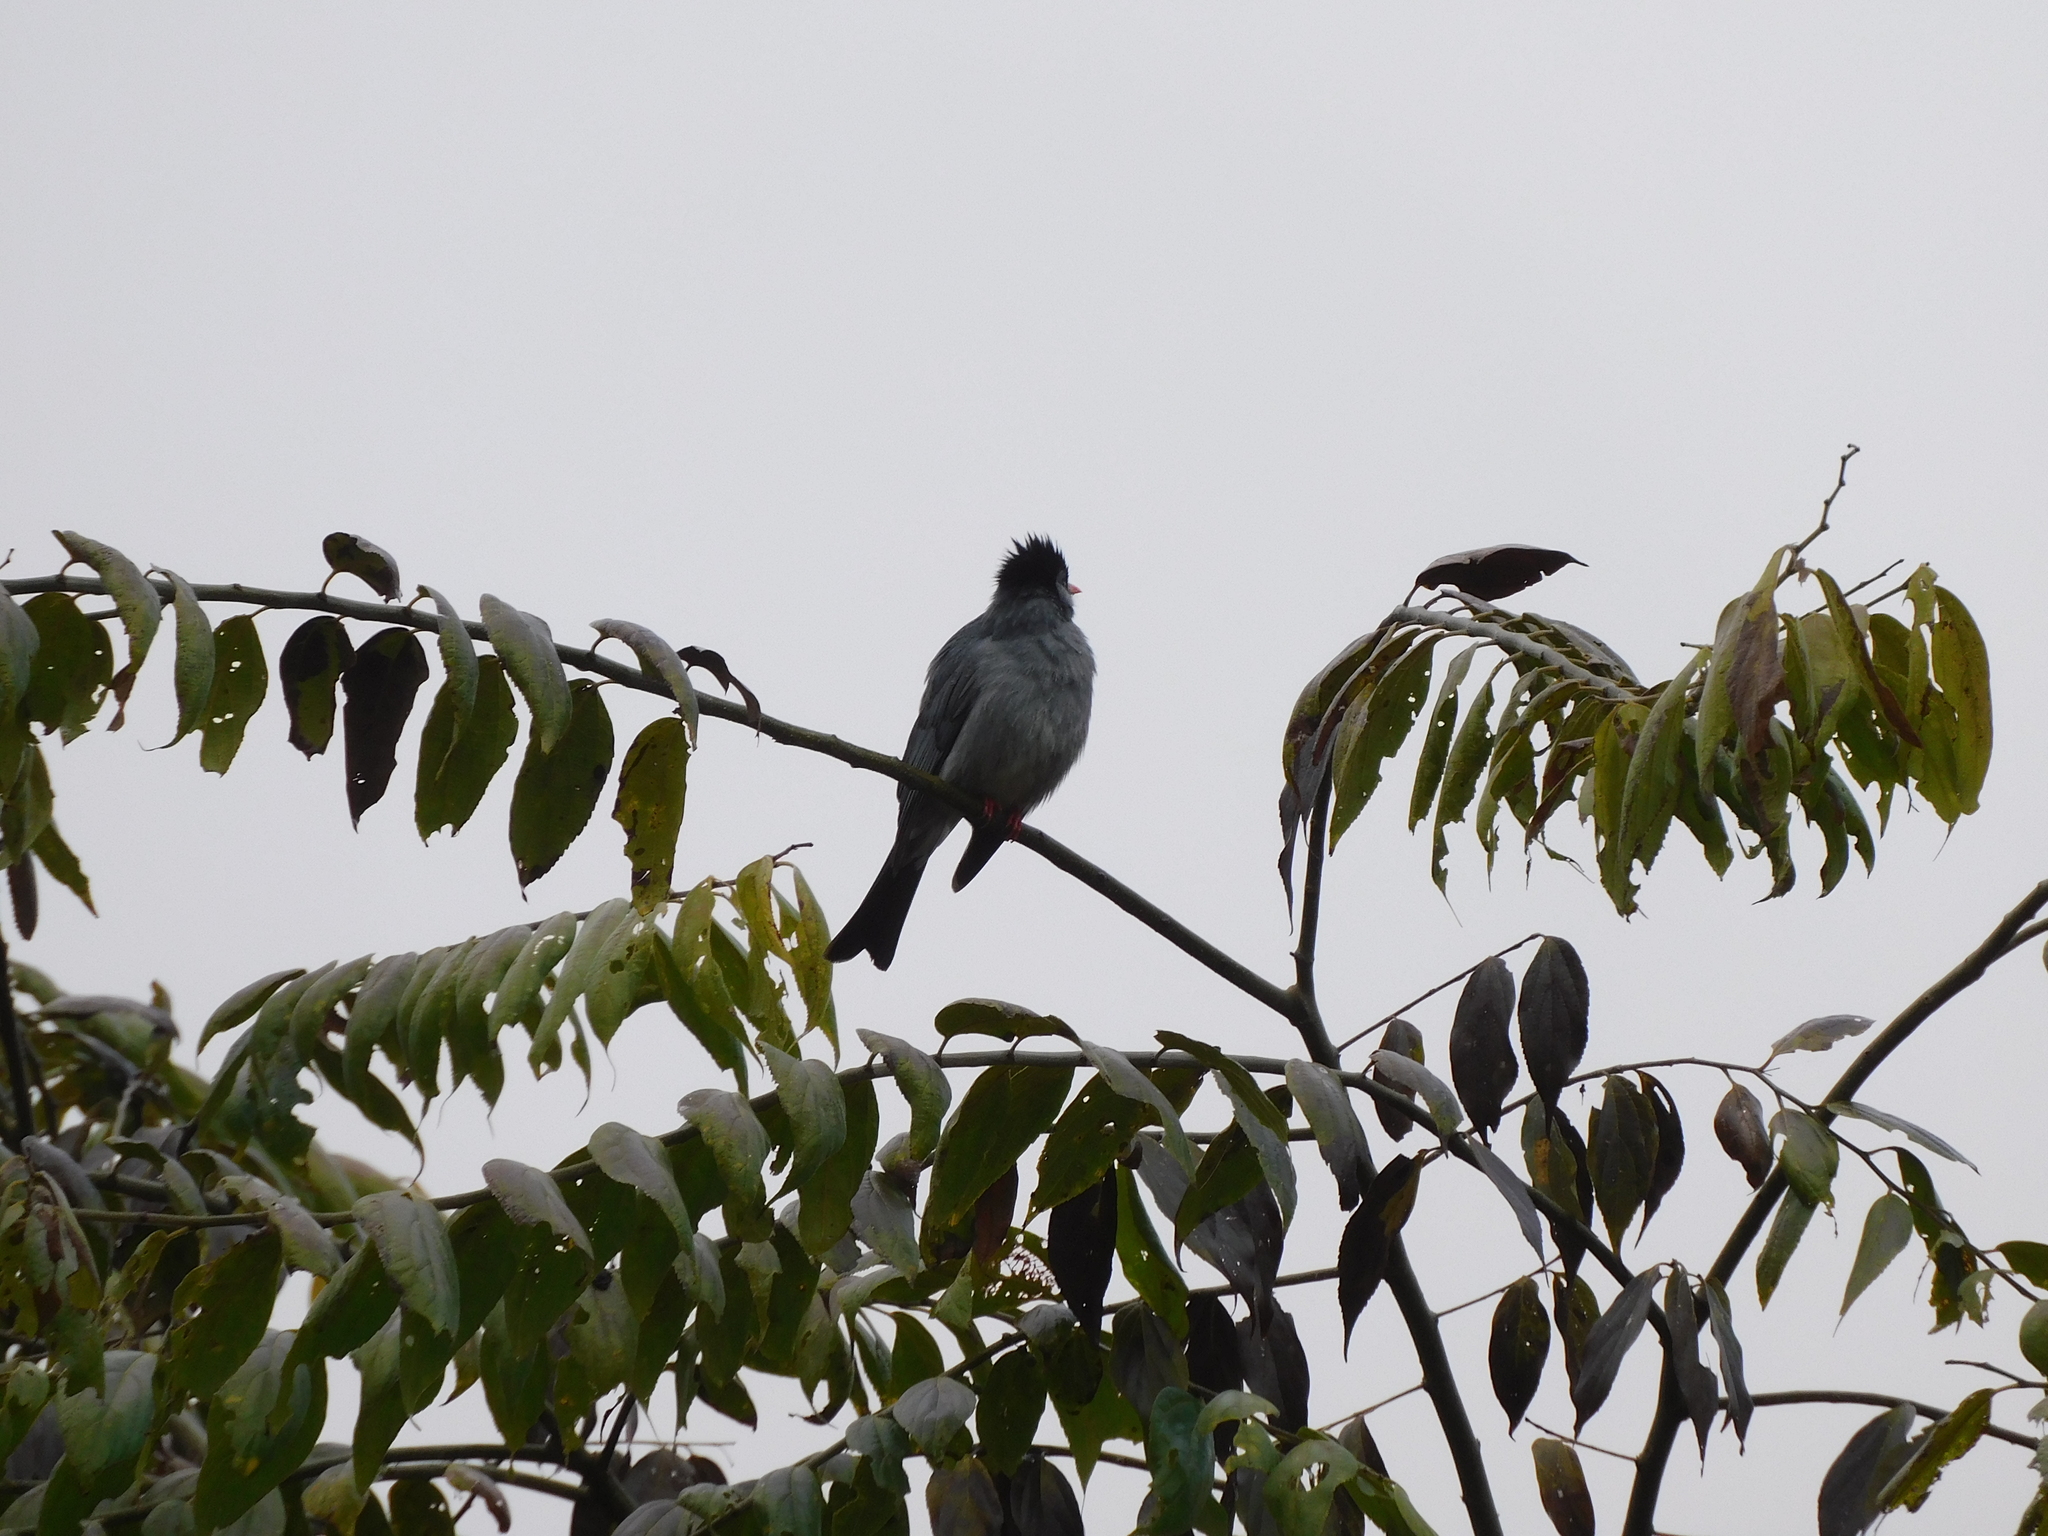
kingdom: Animalia
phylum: Chordata
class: Aves
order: Passeriformes
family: Pycnonotidae
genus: Hypsipetes
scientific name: Hypsipetes leucocephalus
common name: Black bulbul
